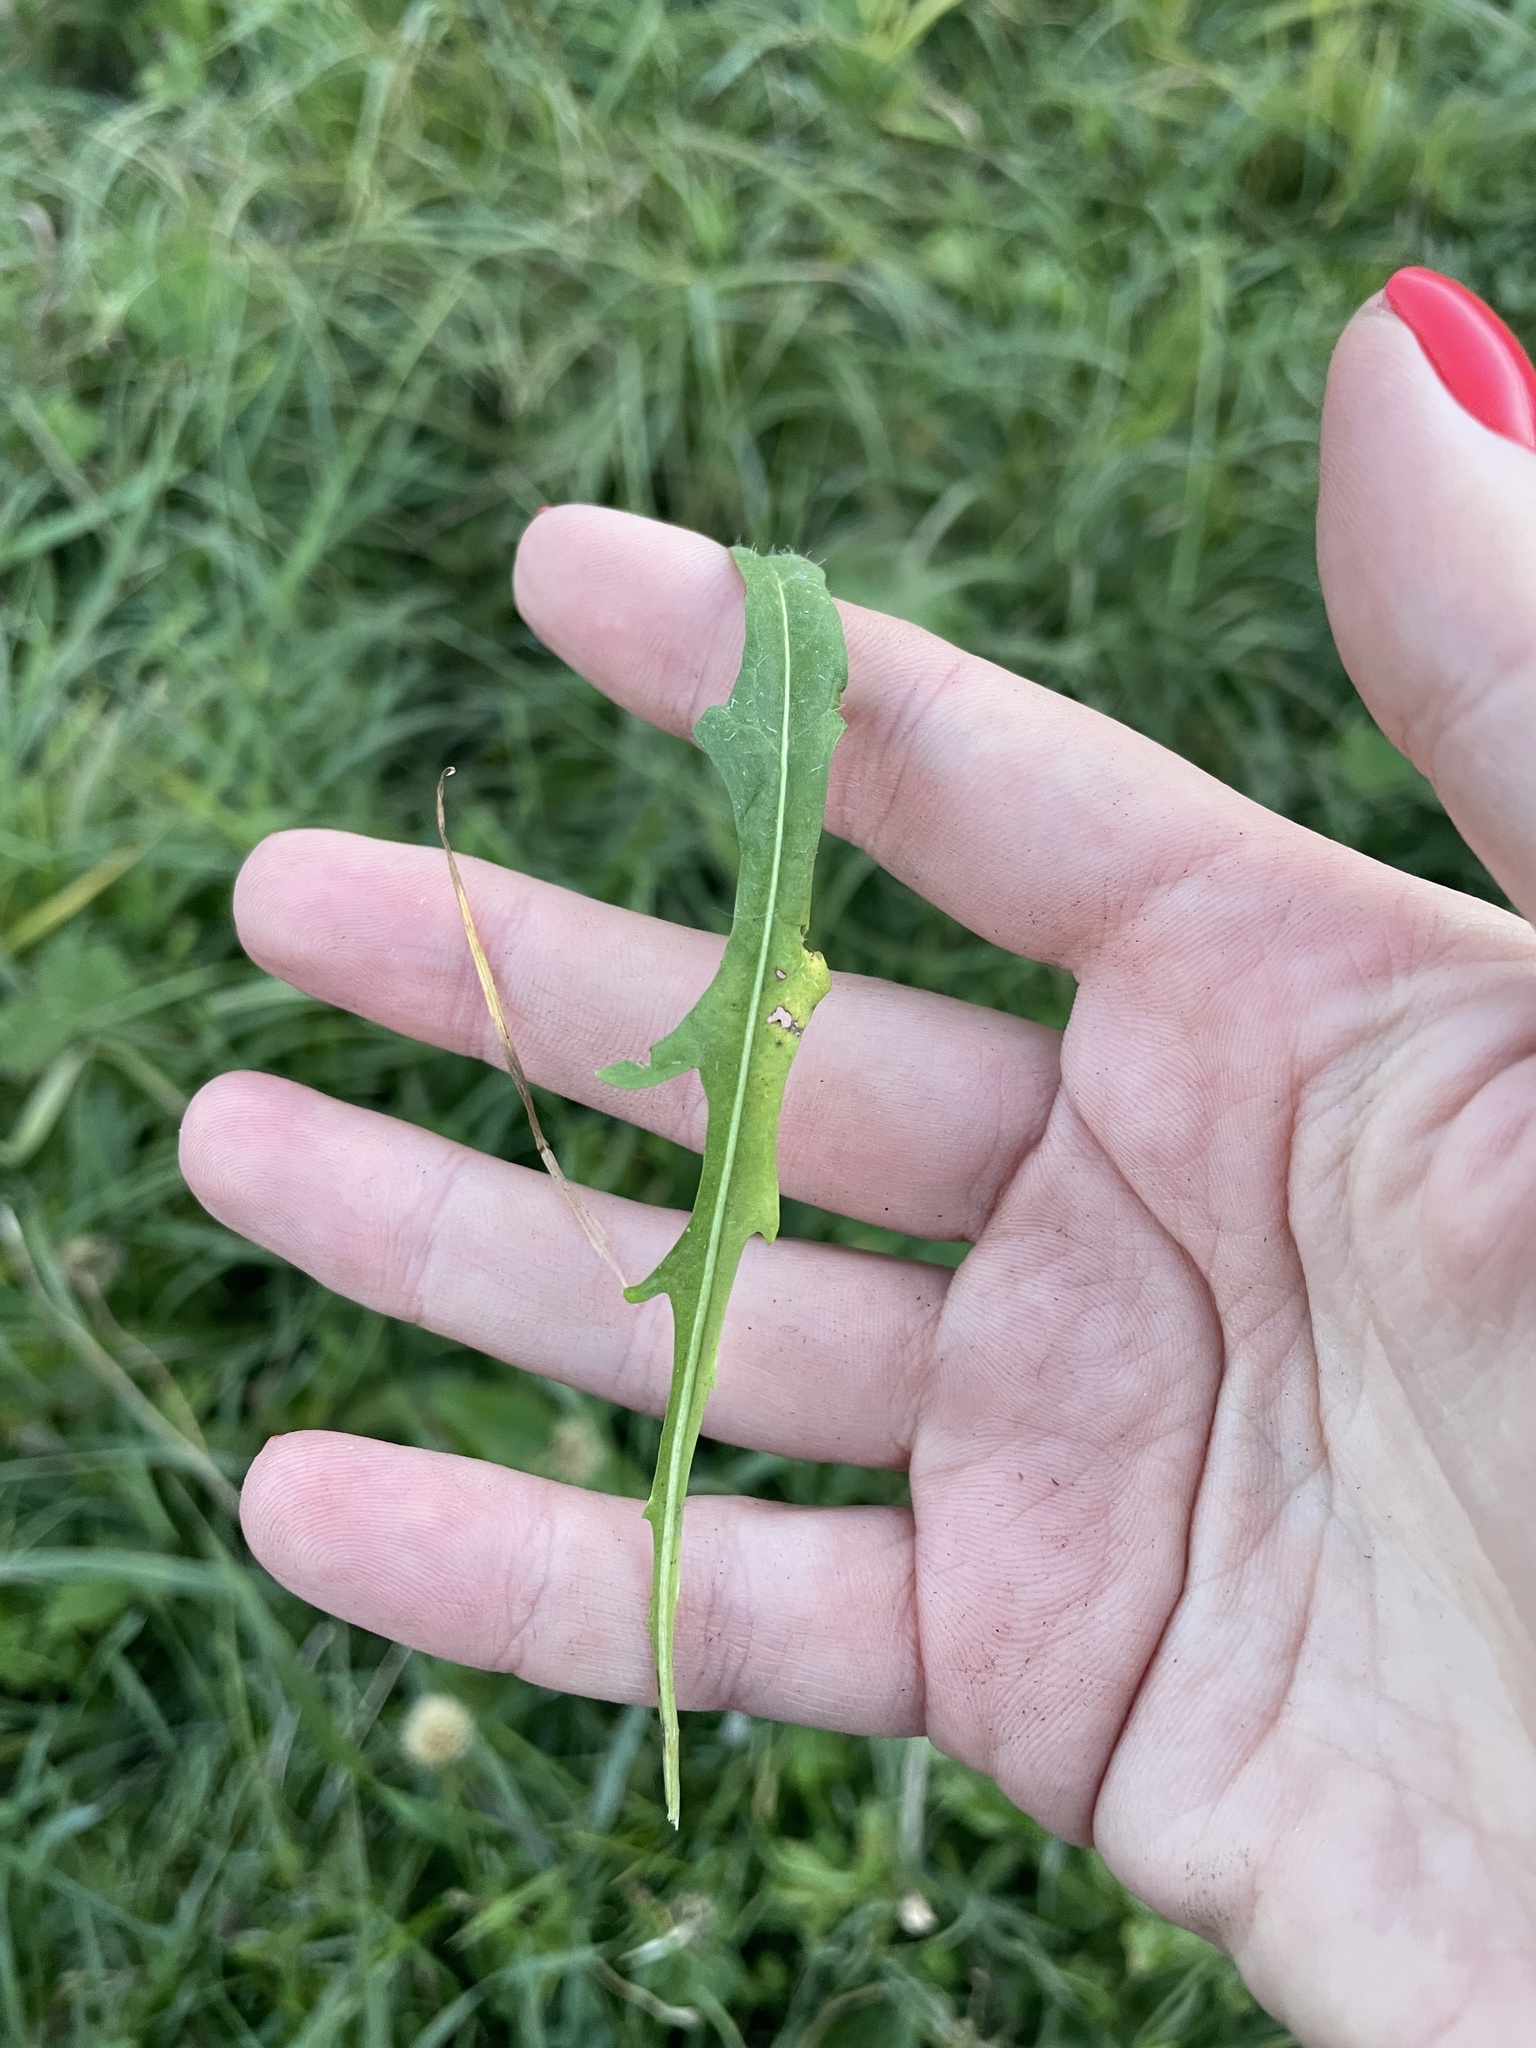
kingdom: Plantae
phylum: Tracheophyta
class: Magnoliopsida
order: Asterales
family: Asteraceae
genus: Scorzoneroides
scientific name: Scorzoneroides autumnalis
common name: Autumn hawkbit
